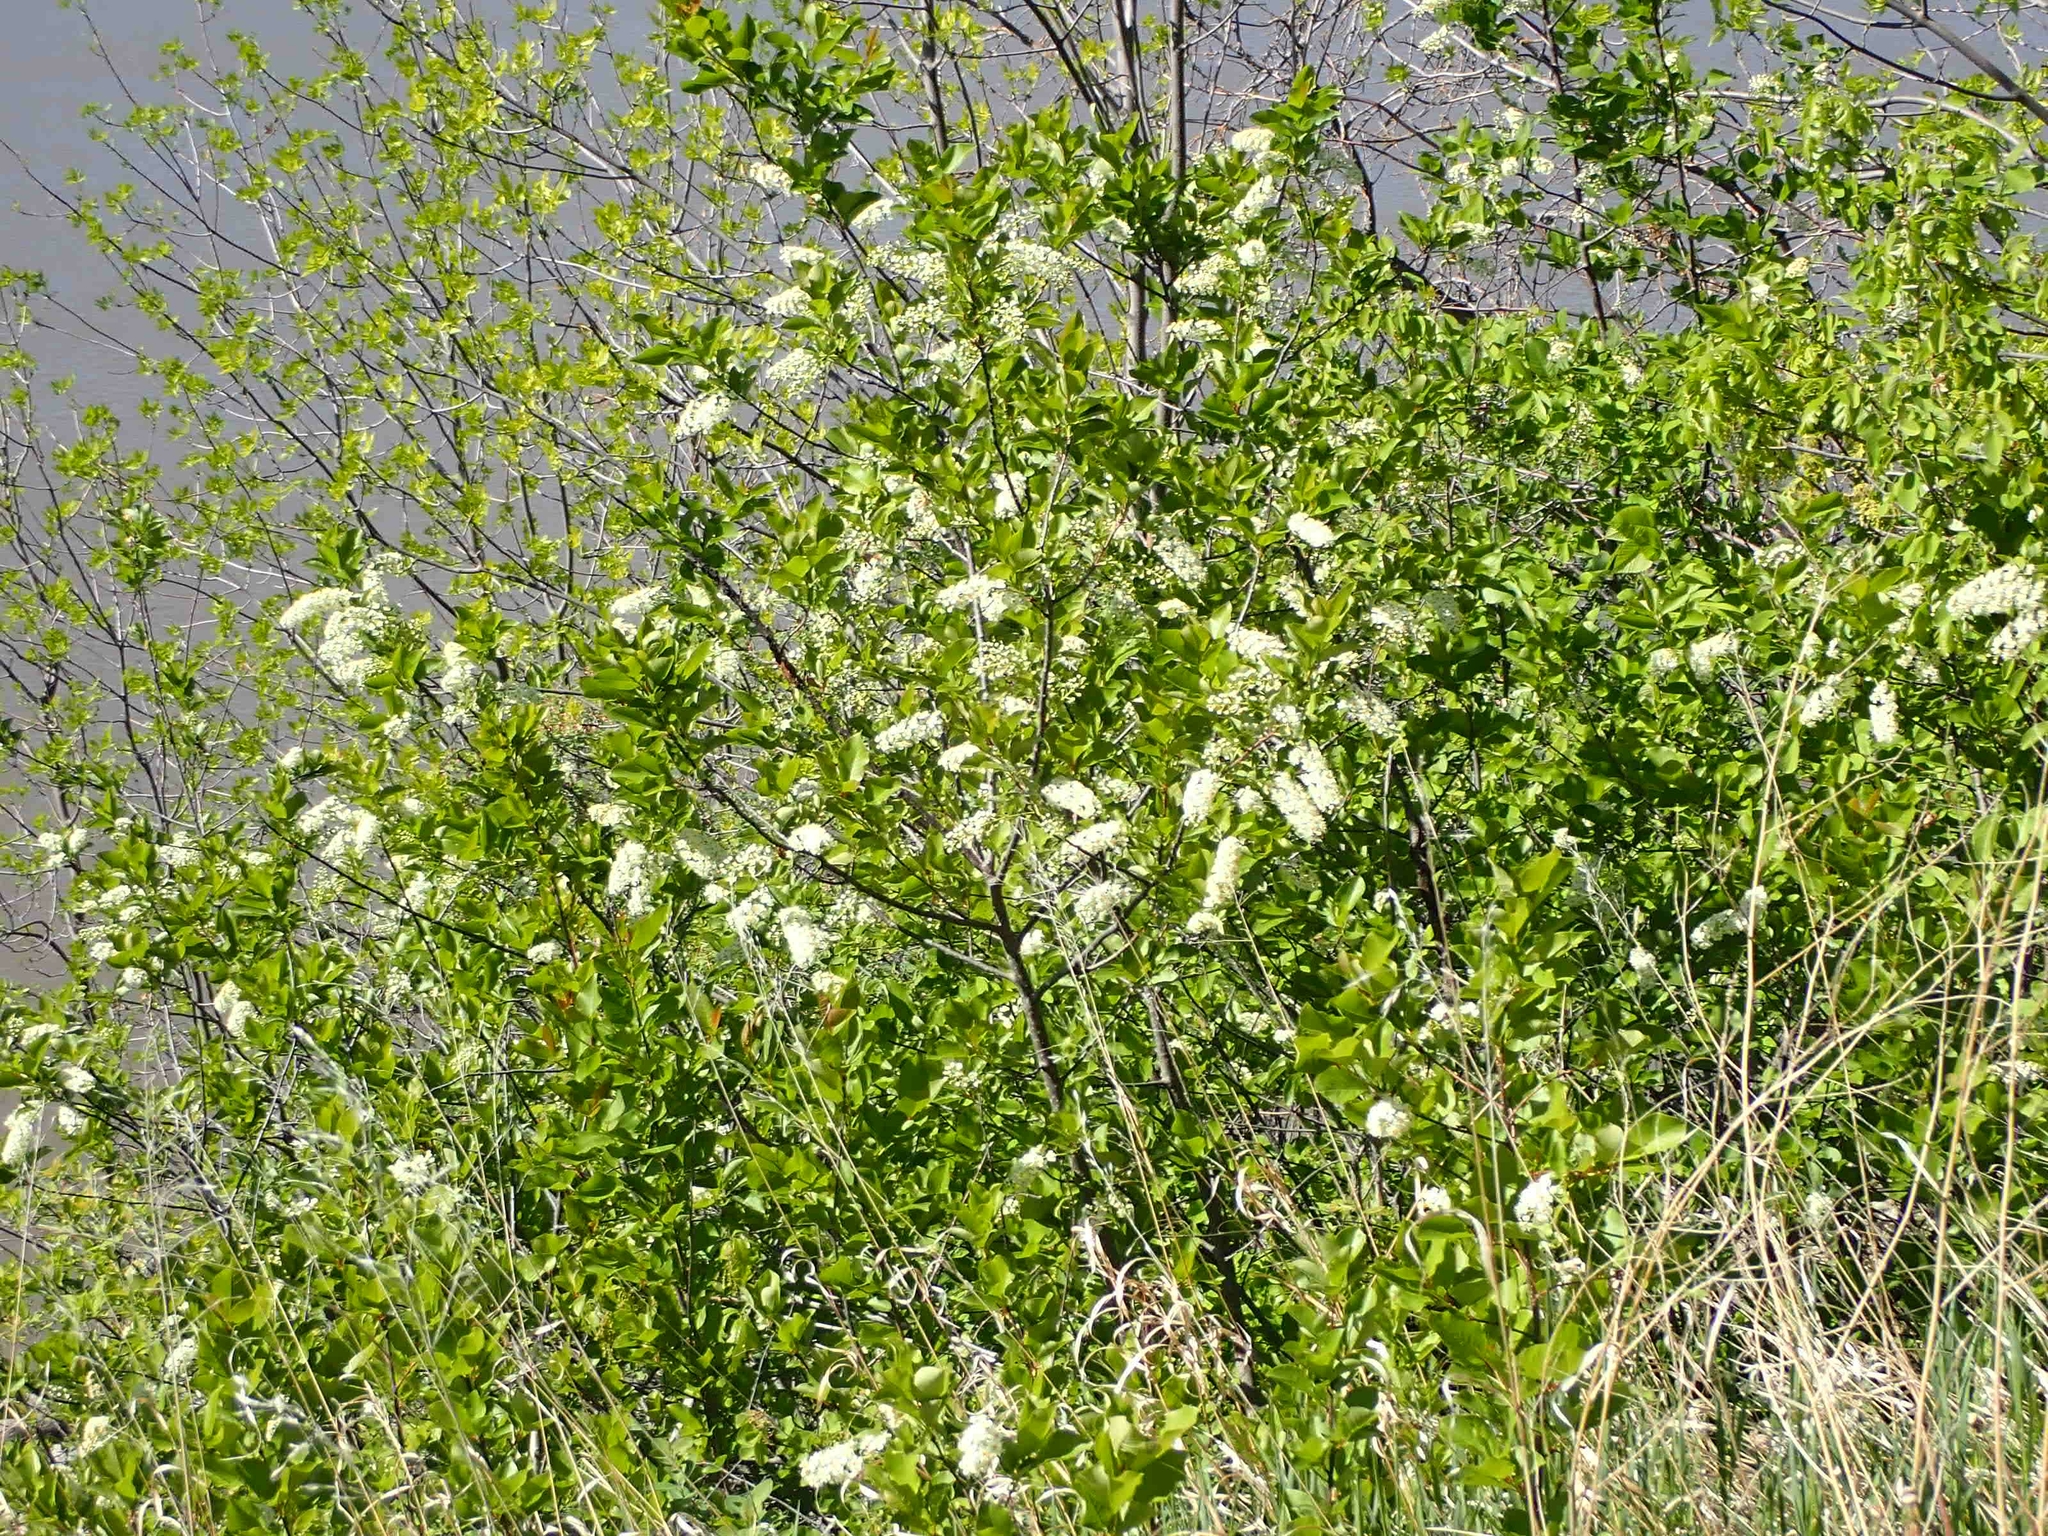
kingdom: Plantae
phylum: Tracheophyta
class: Magnoliopsida
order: Rosales
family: Rosaceae
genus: Prunus
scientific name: Prunus virginiana
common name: Chokecherry
